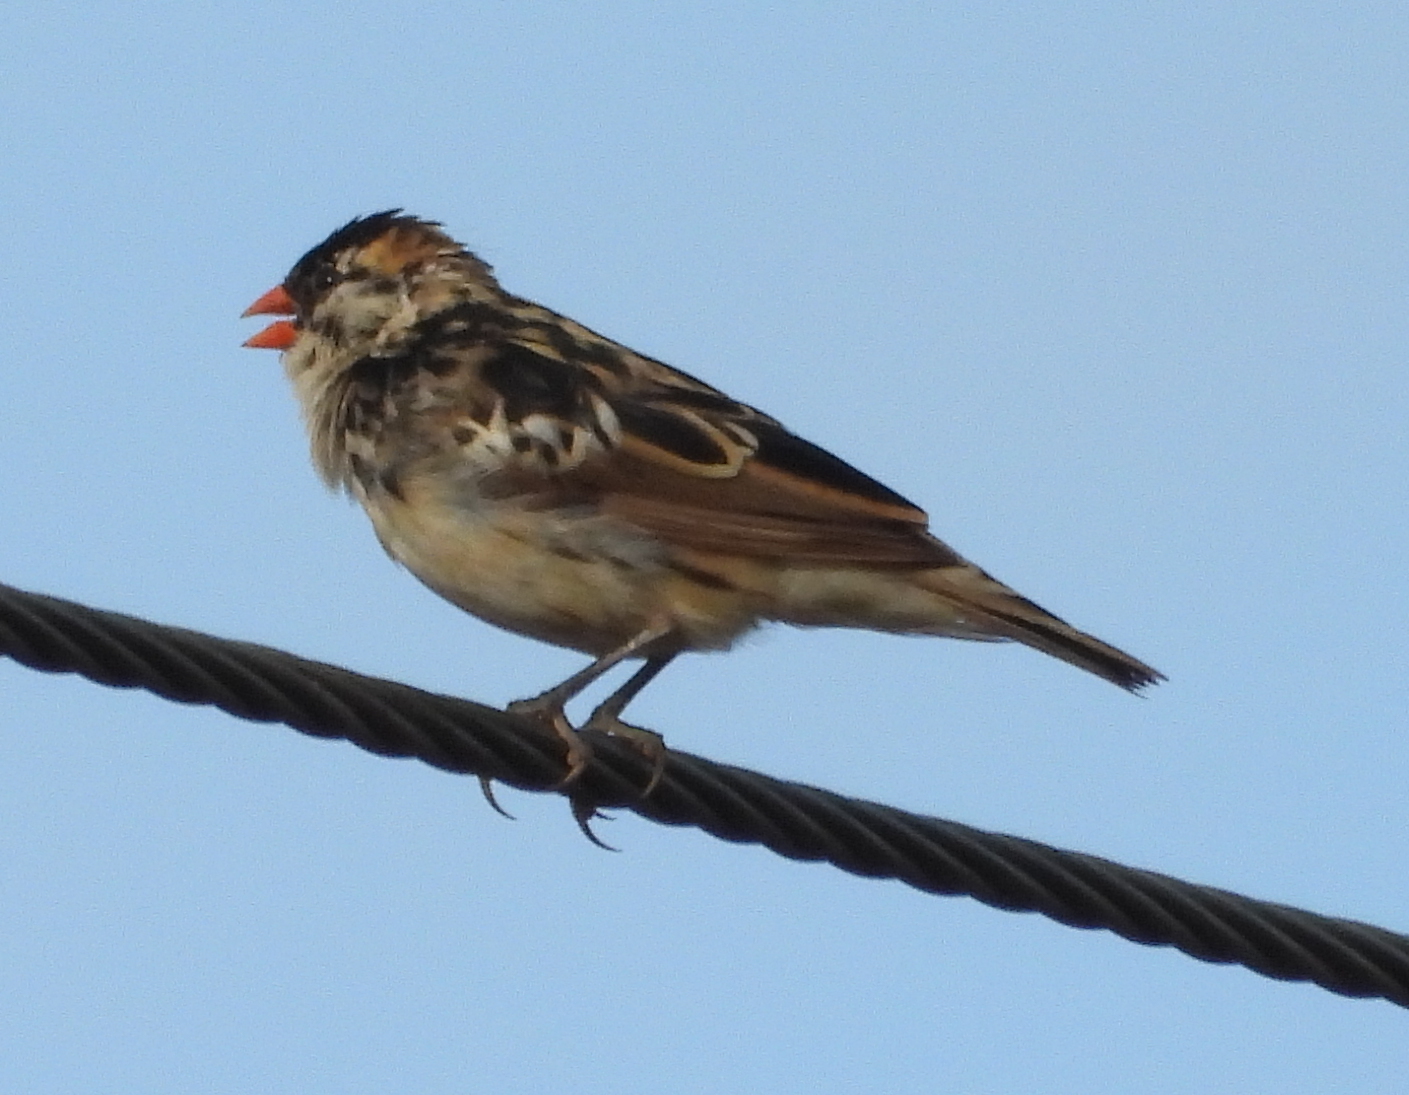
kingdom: Animalia
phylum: Chordata
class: Aves
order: Passeriformes
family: Viduidae
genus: Vidua
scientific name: Vidua macroura
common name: Pin-tailed whydah
